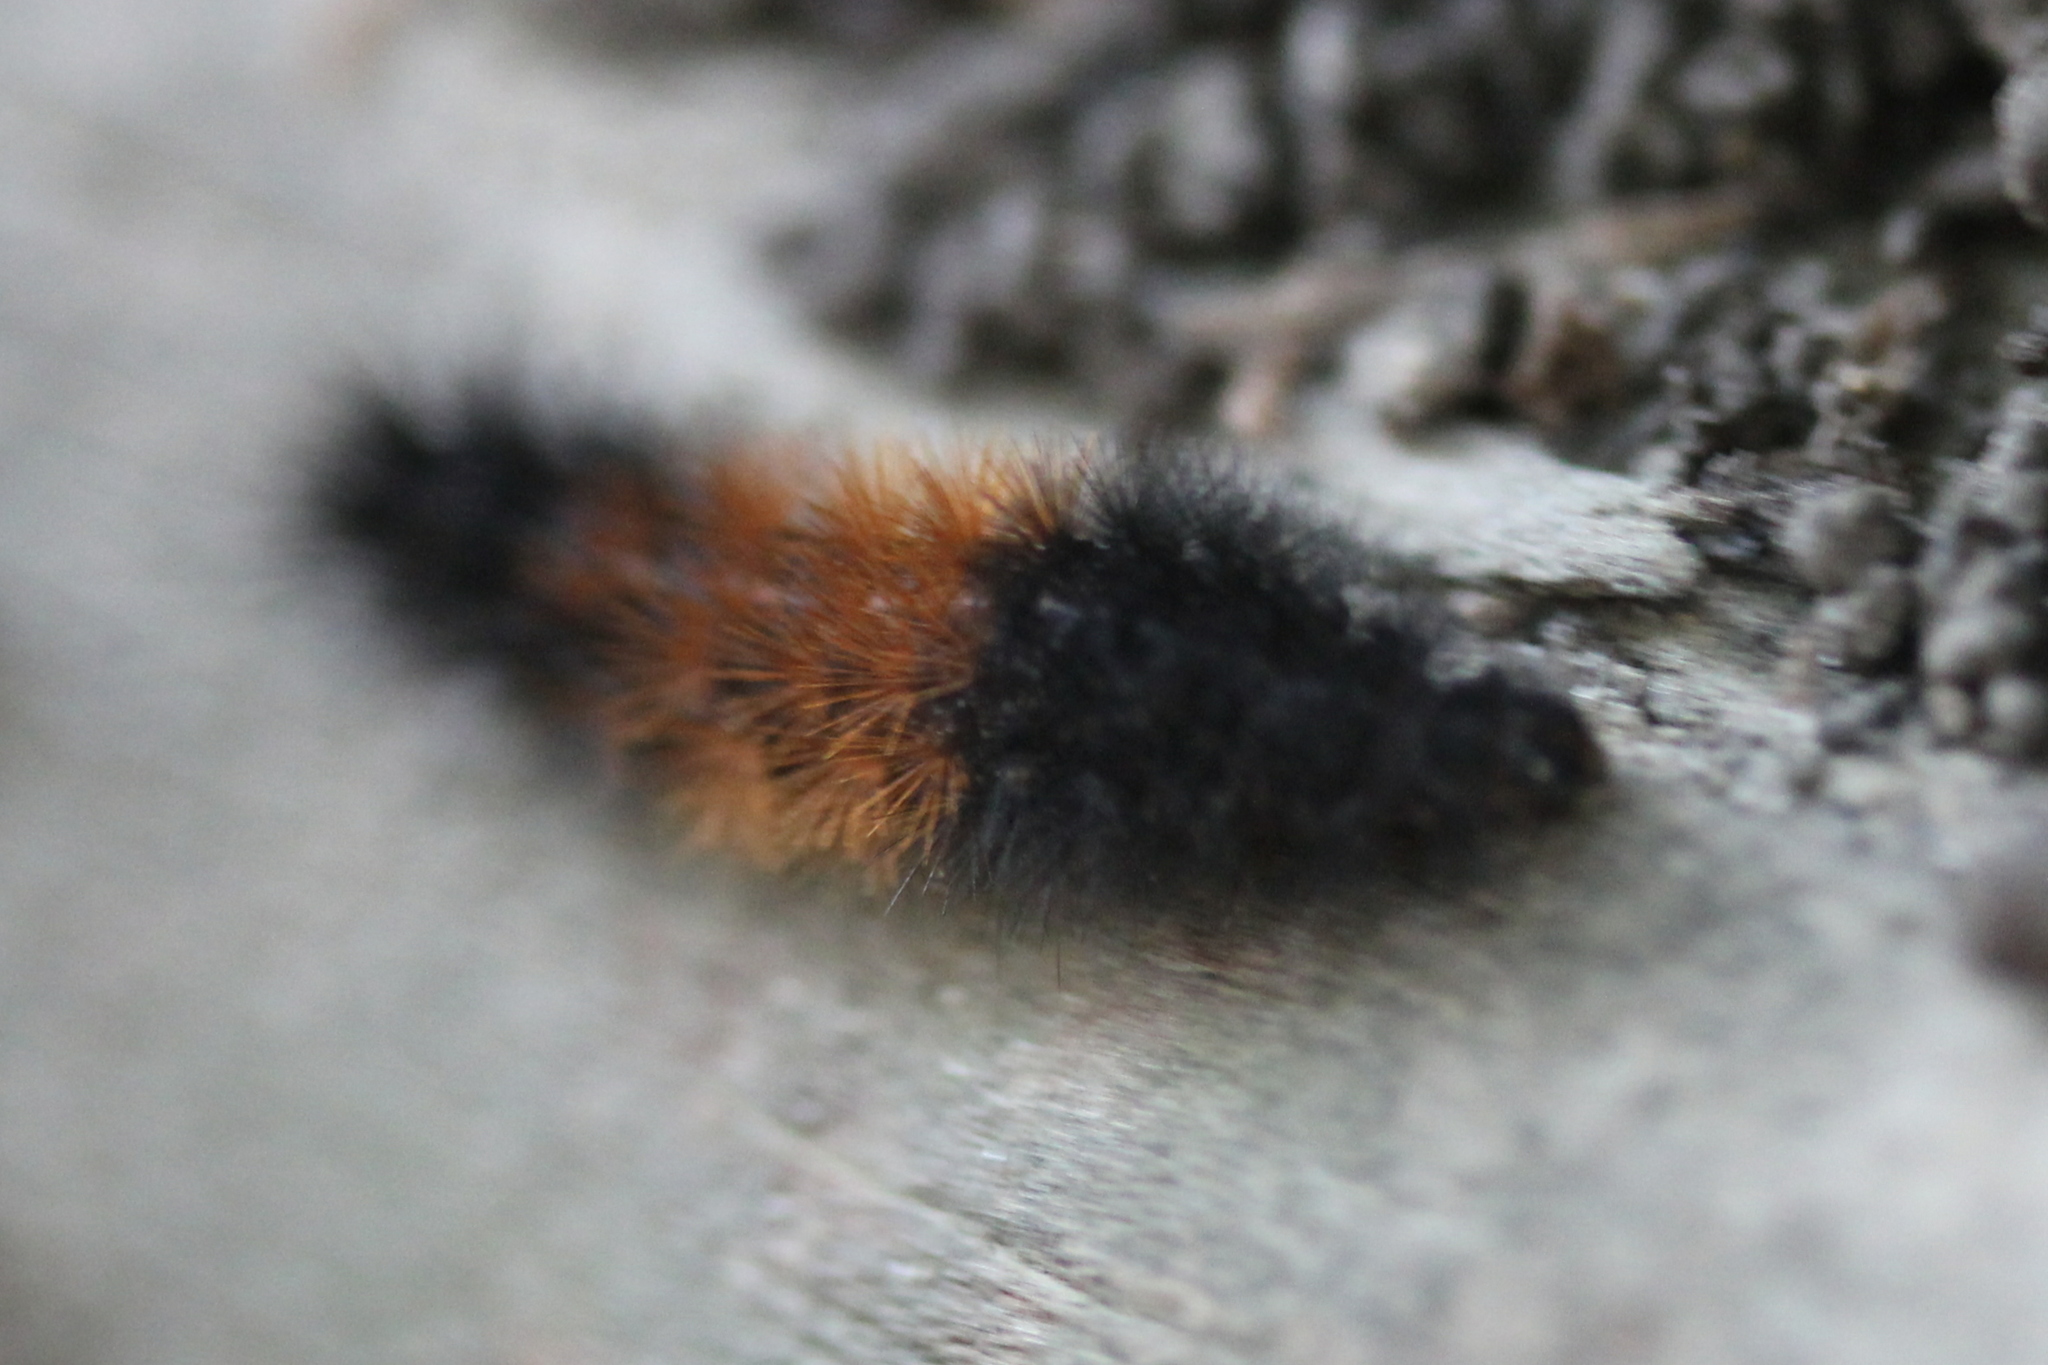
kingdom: Animalia
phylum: Arthropoda
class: Insecta
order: Lepidoptera
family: Erebidae
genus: Pyrrharctia
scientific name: Pyrrharctia isabella
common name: Isabella tiger moth
